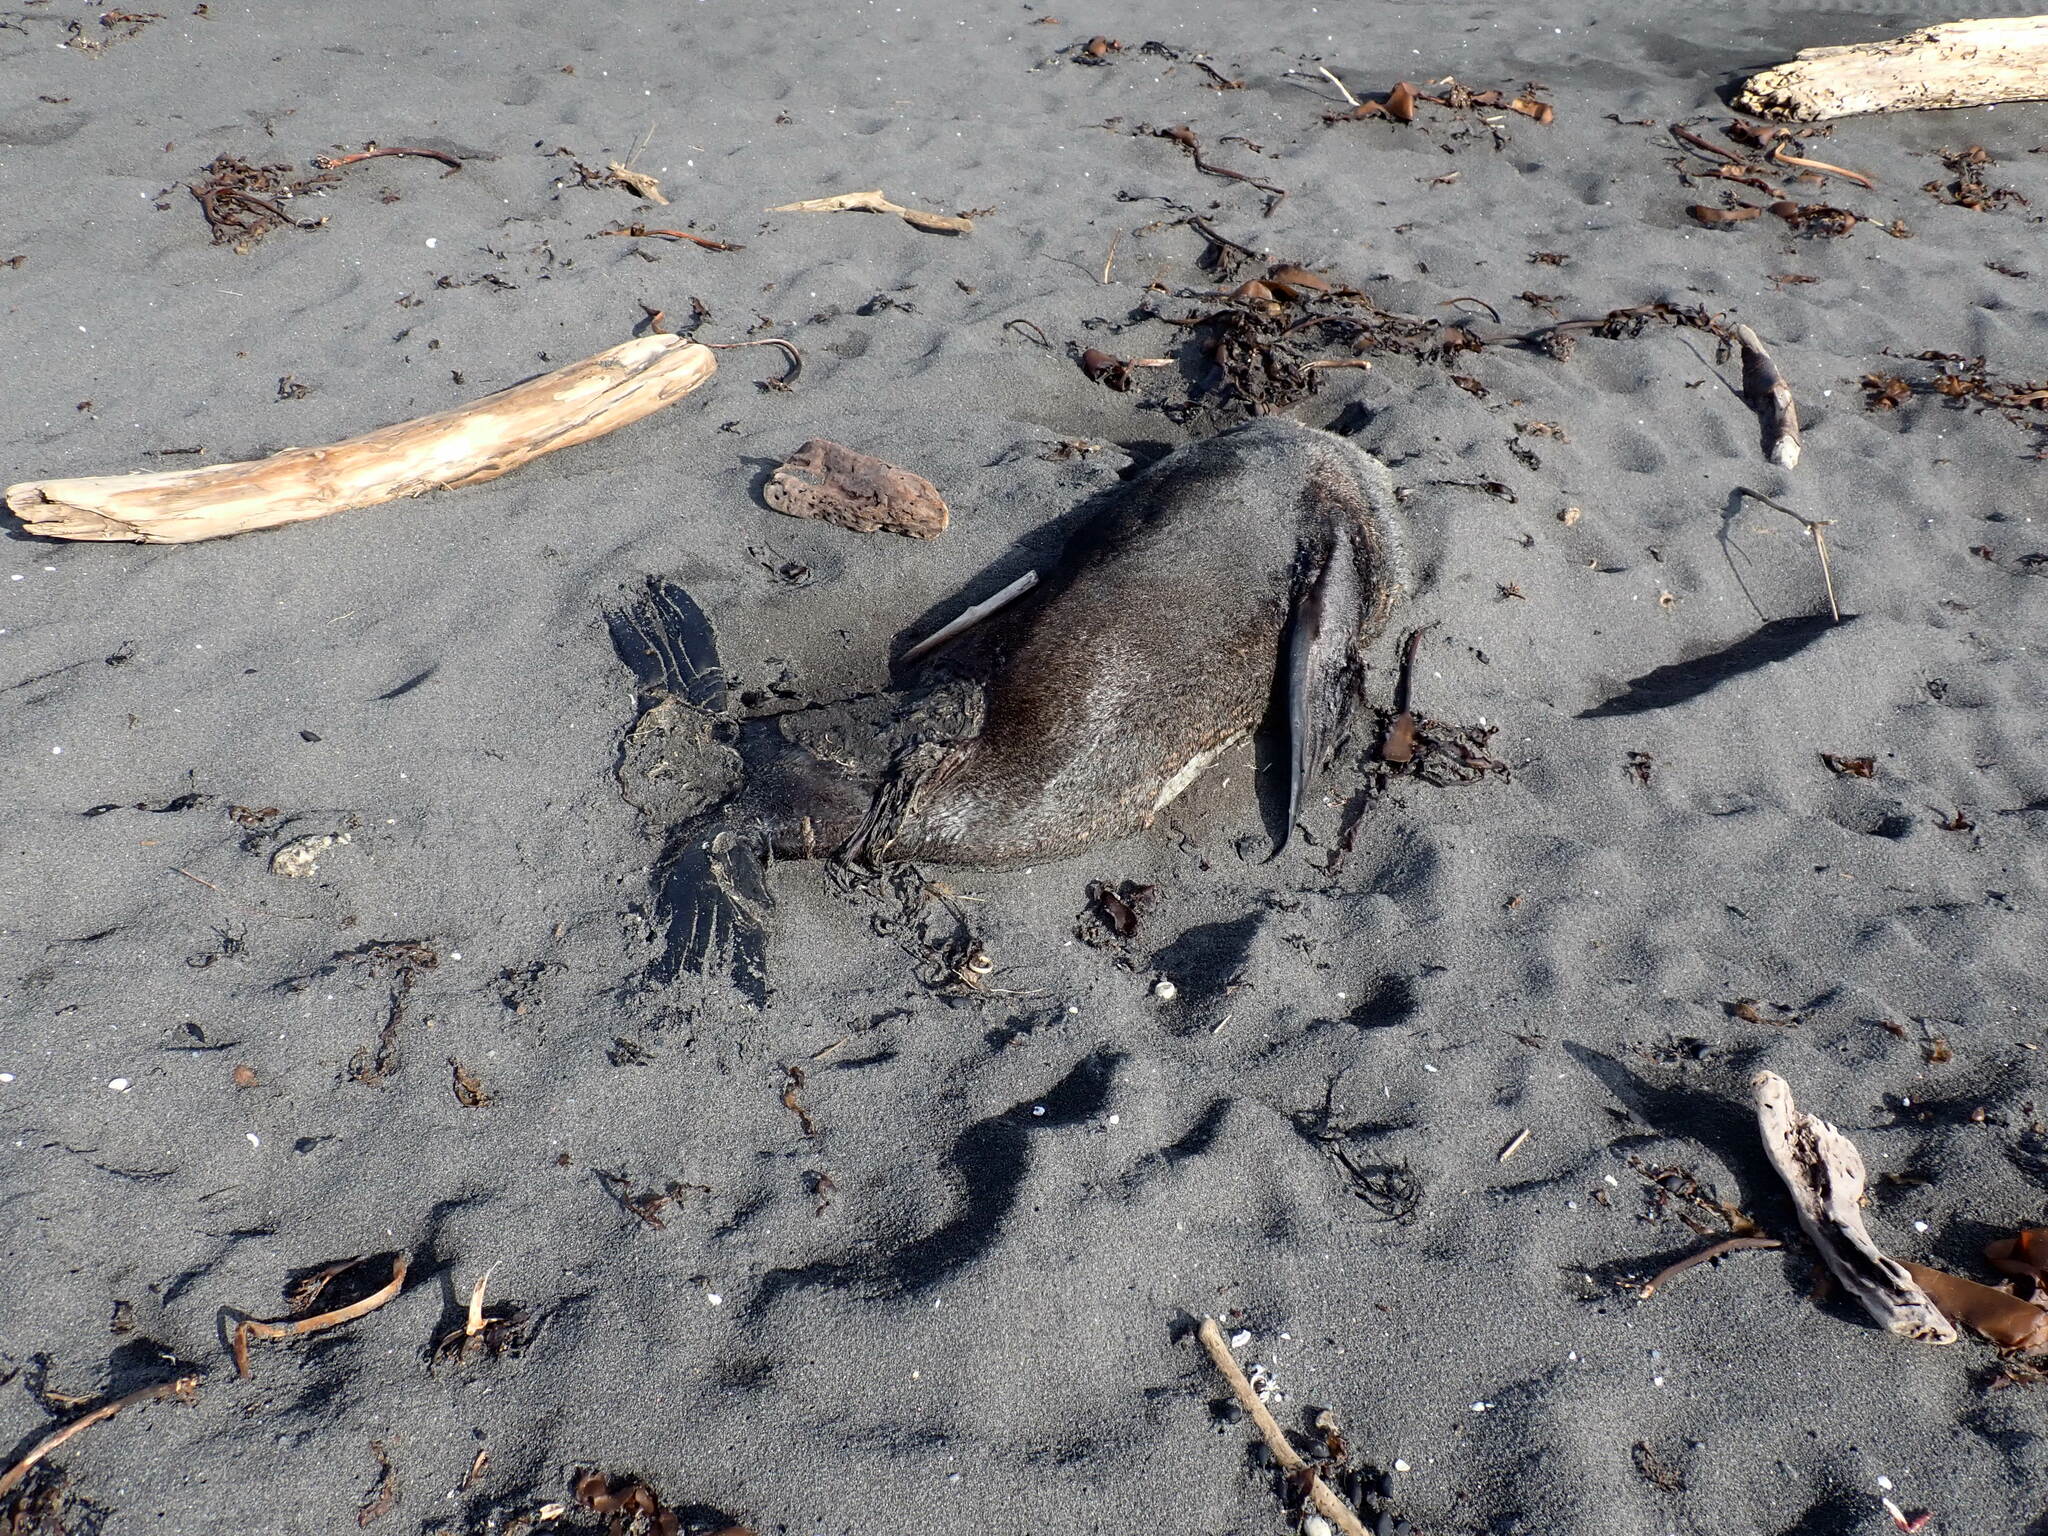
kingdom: Animalia
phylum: Chordata
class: Mammalia
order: Carnivora
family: Otariidae
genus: Arctocephalus
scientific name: Arctocephalus forsteri
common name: New zealand fur seal
